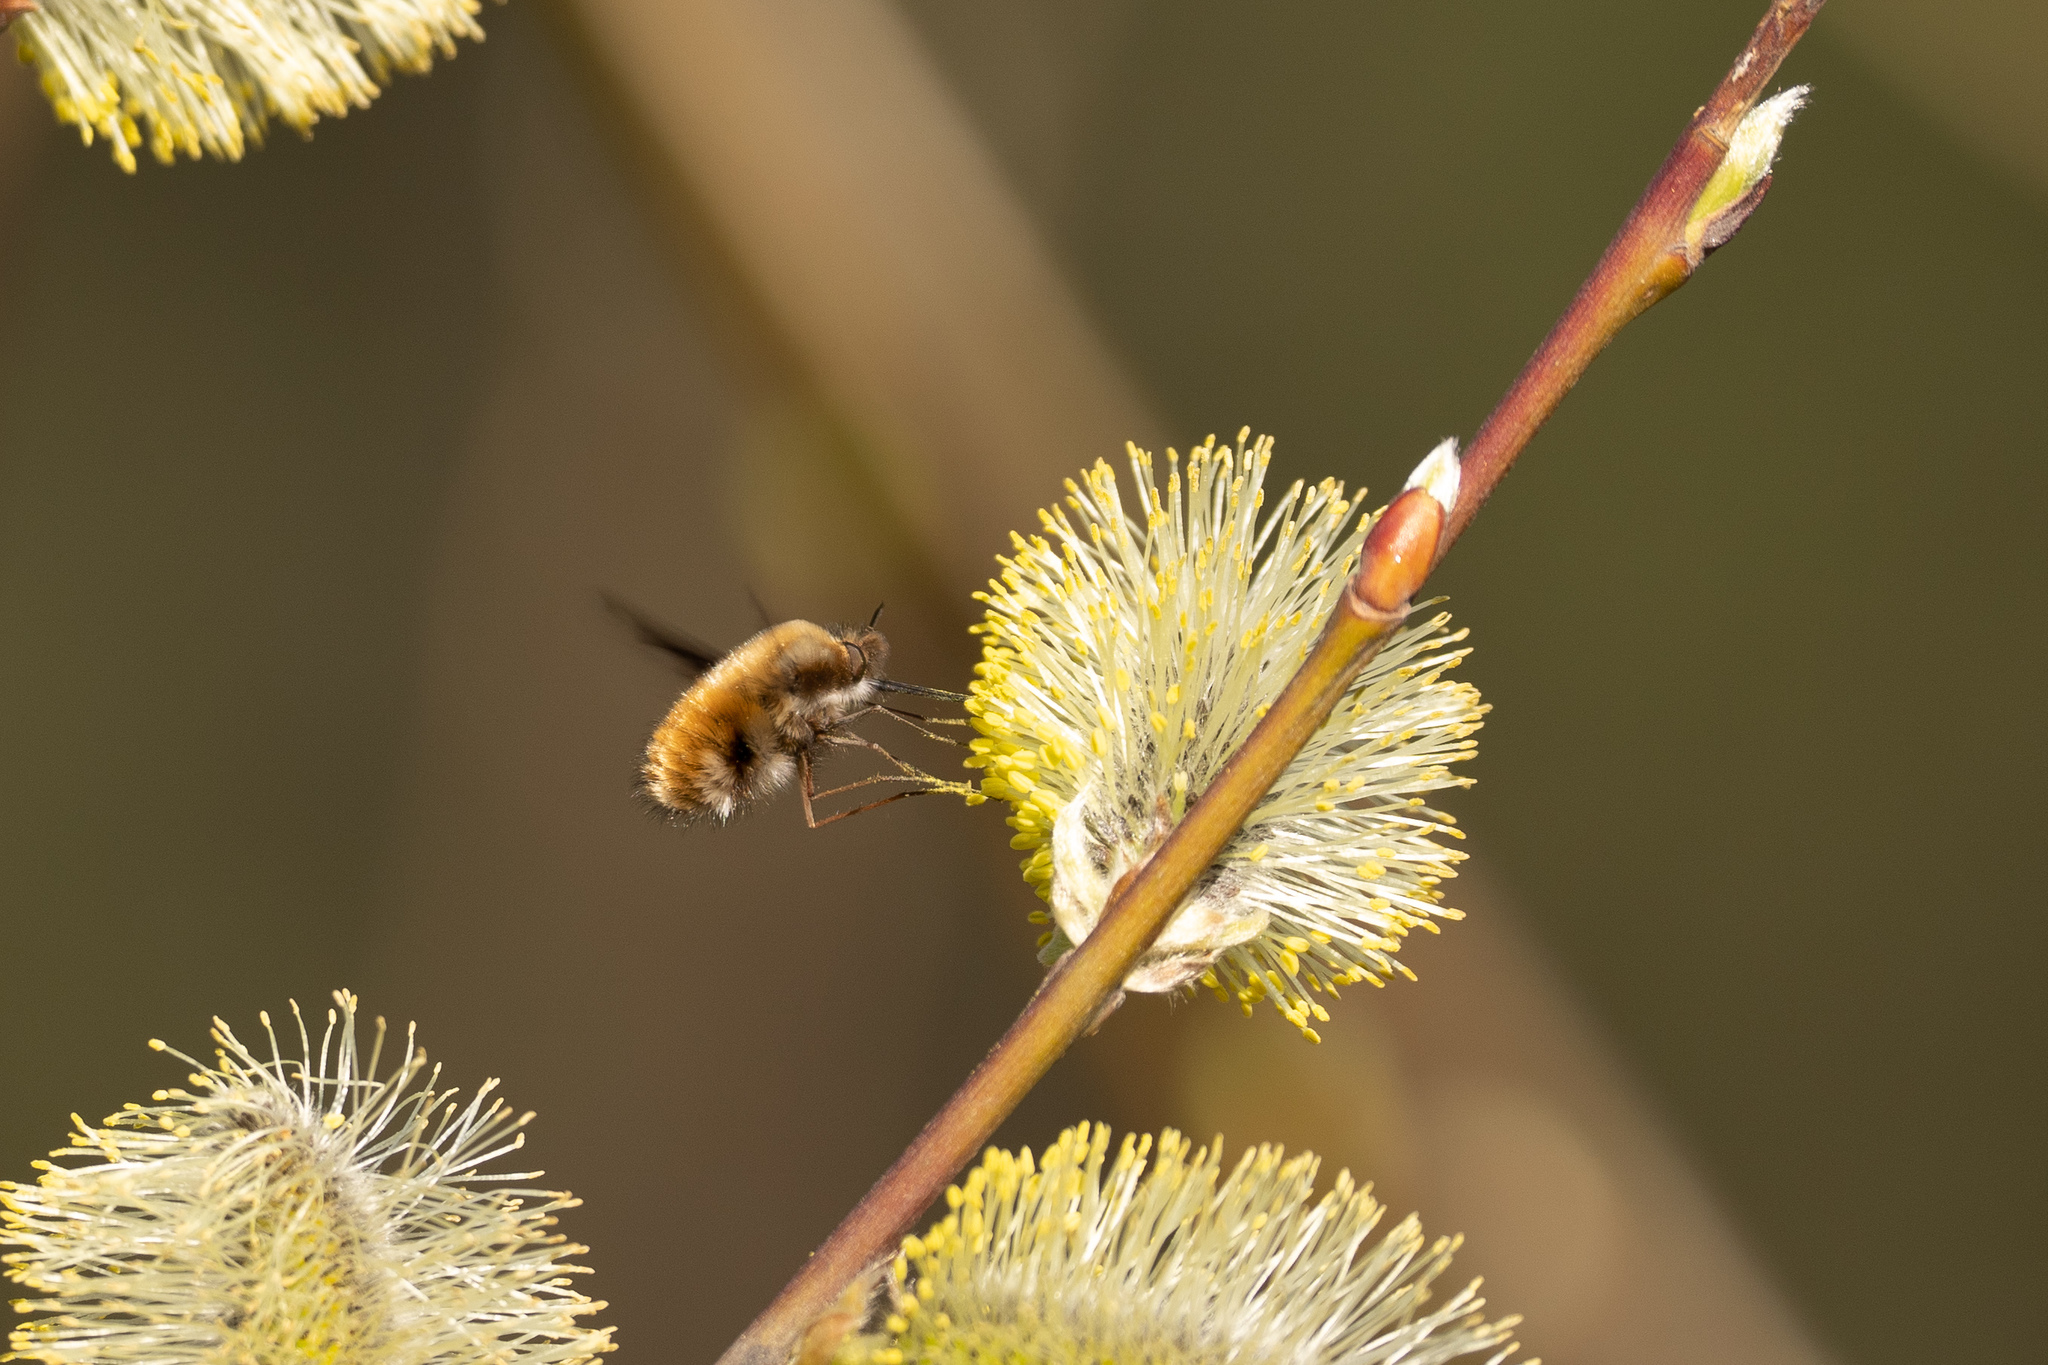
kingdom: Animalia
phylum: Arthropoda
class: Insecta
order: Diptera
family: Bombyliidae
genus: Bombylius
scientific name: Bombylius major
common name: Bee fly
